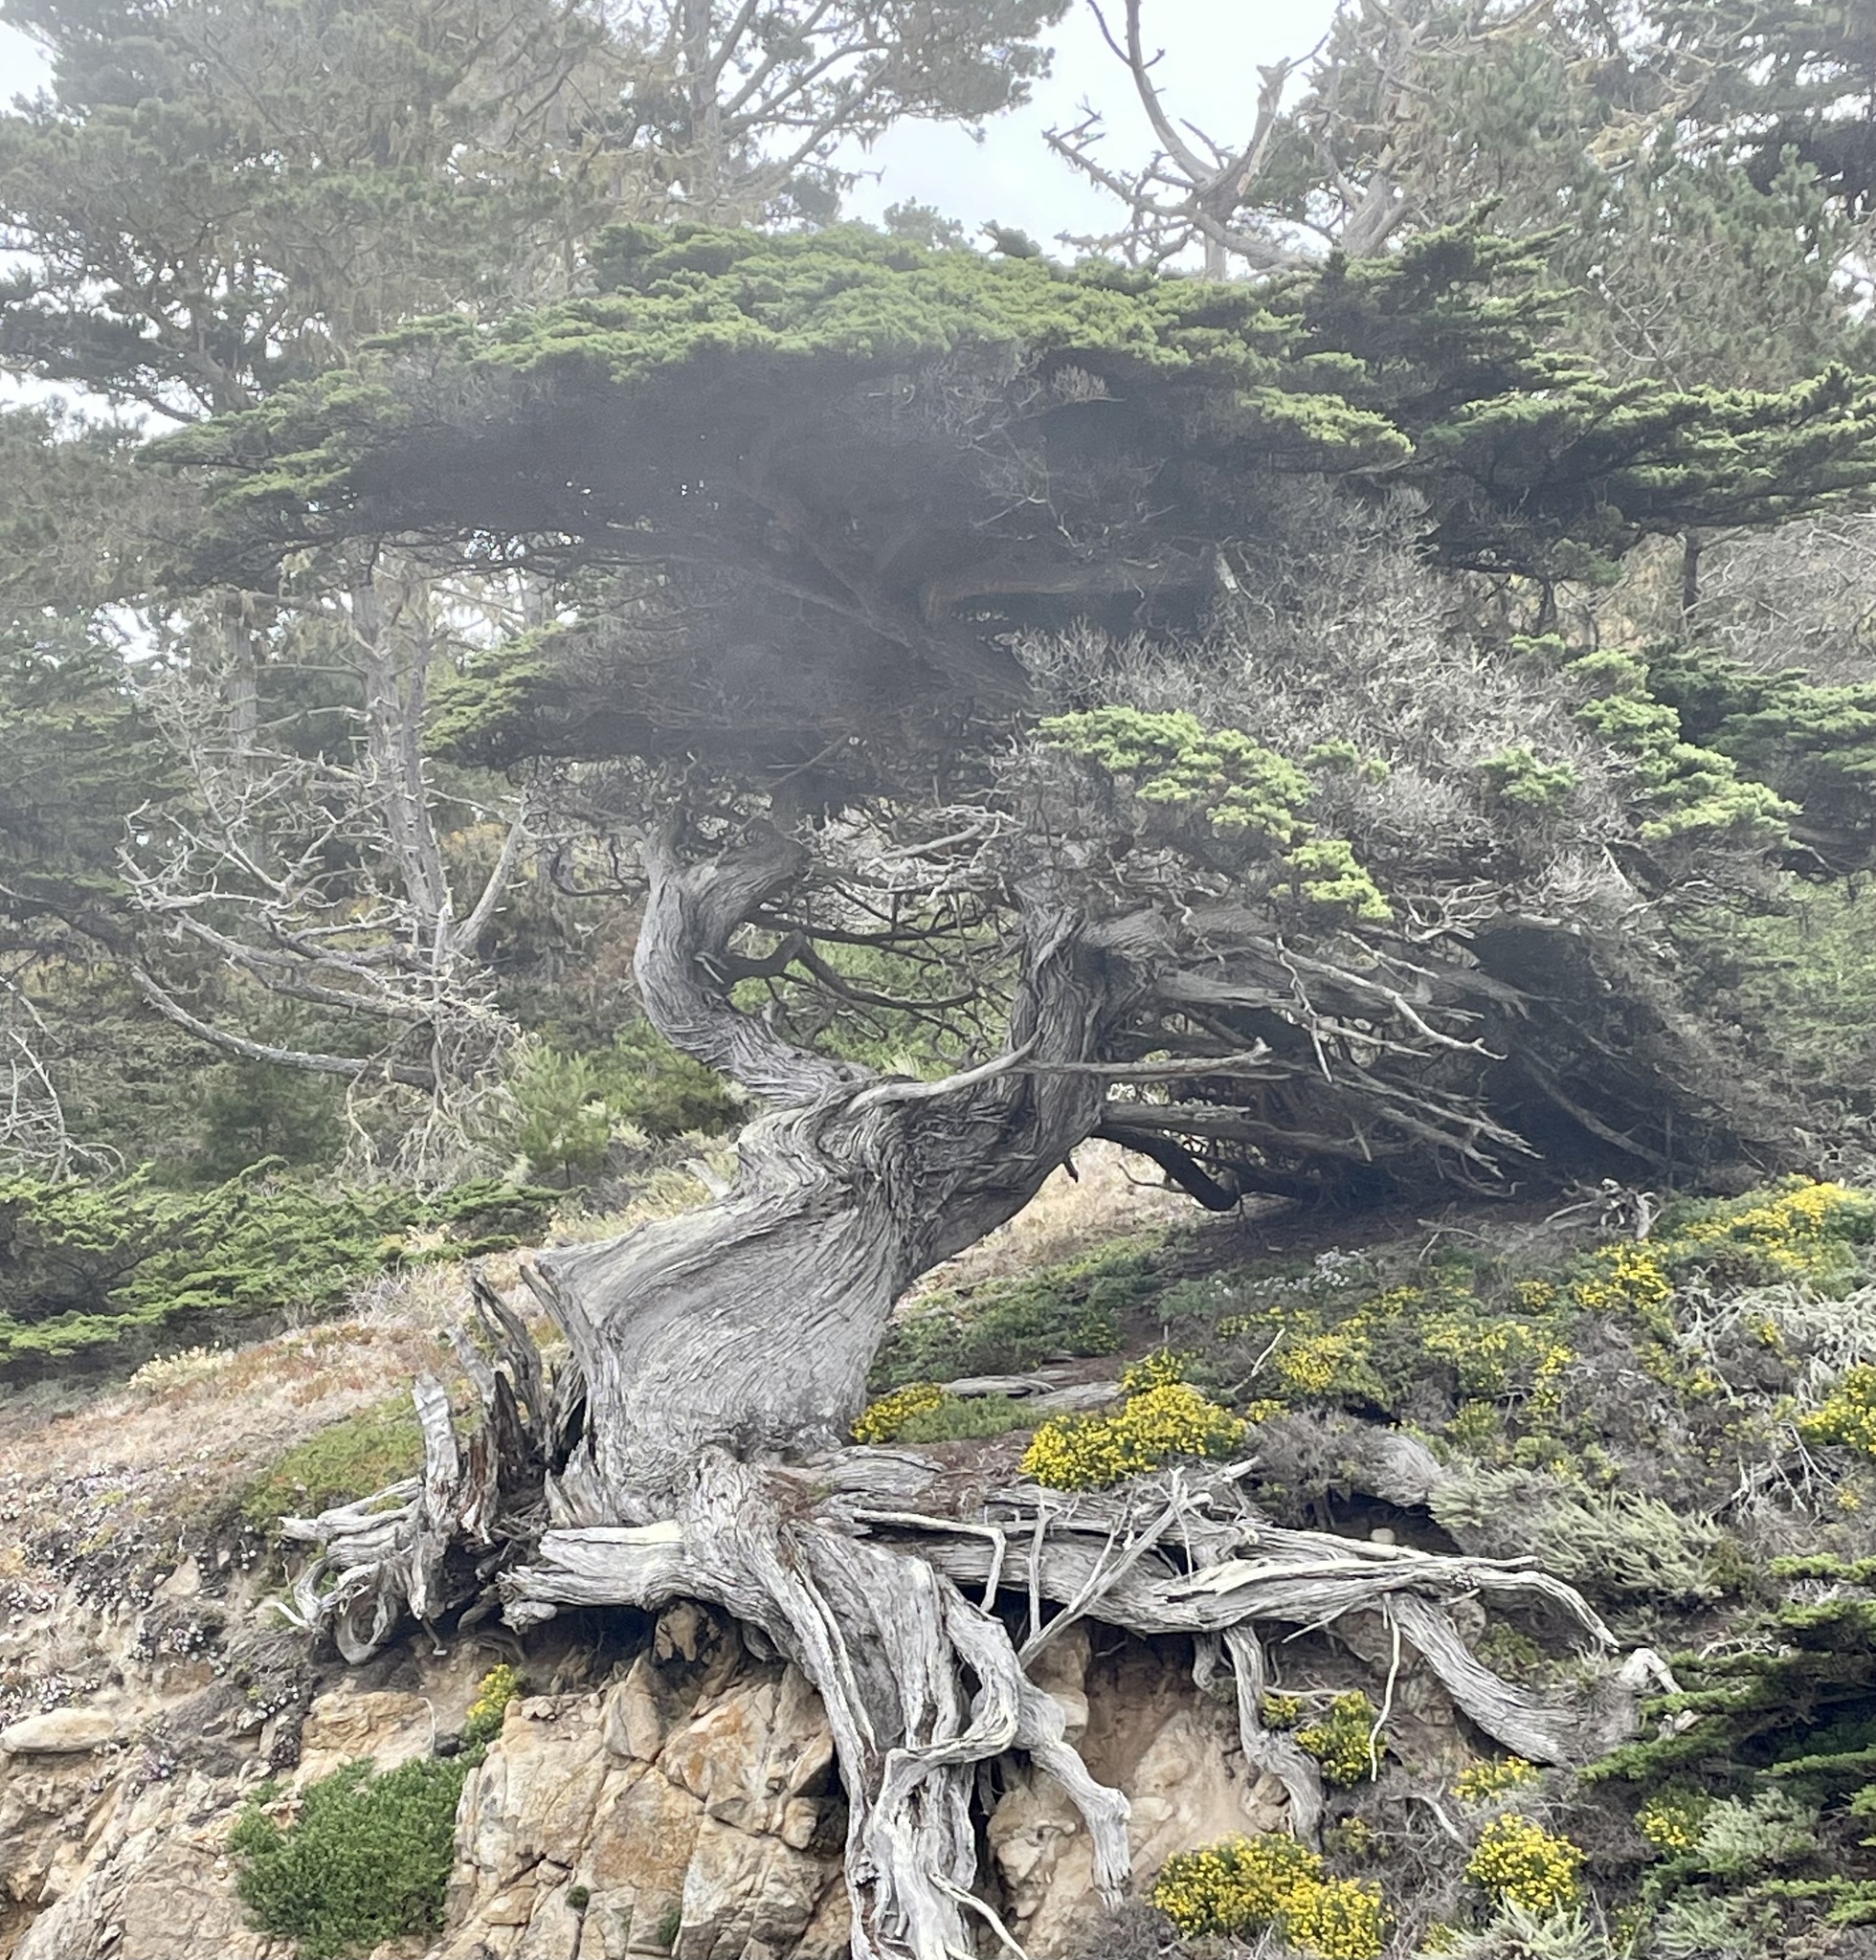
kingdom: Plantae
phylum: Tracheophyta
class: Pinopsida
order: Pinales
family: Cupressaceae
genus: Cupressus
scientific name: Cupressus macrocarpa
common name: Monterey cypress
